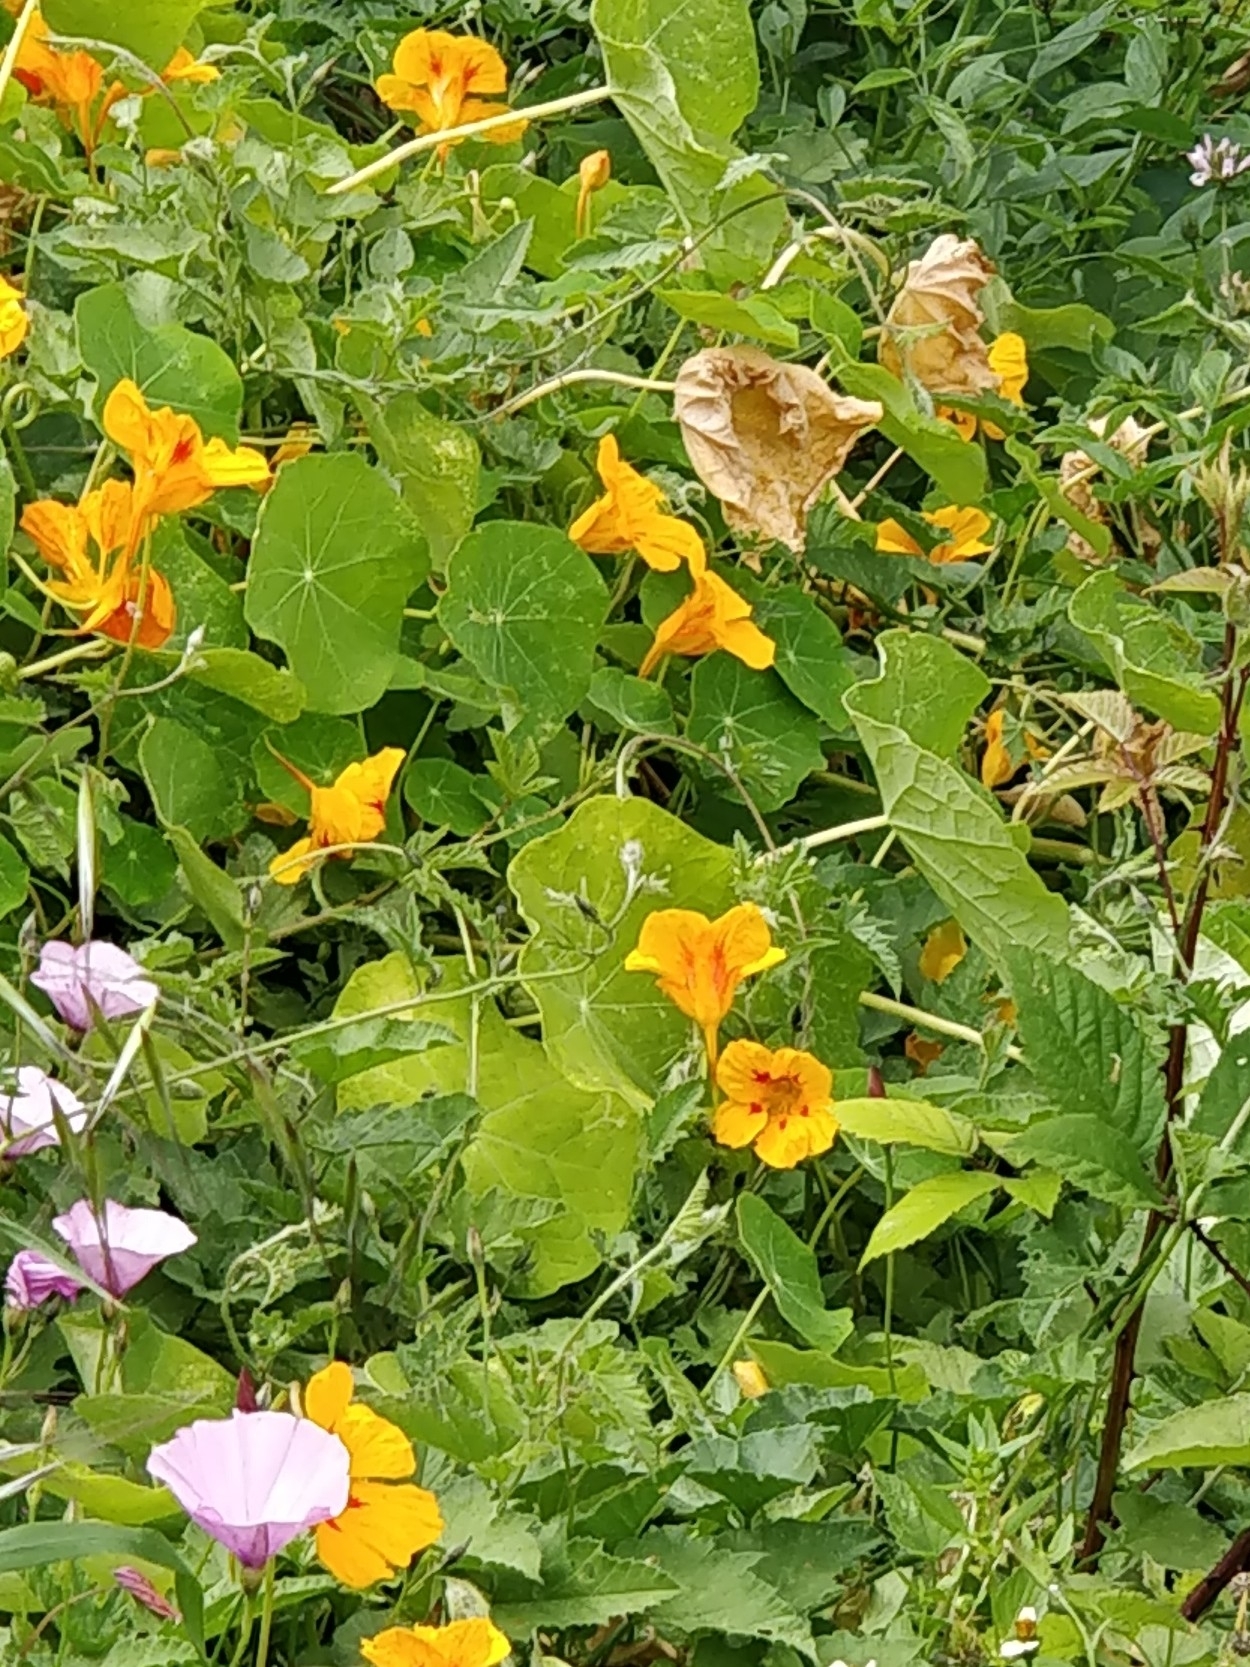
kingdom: Plantae
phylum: Tracheophyta
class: Magnoliopsida
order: Brassicales
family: Tropaeolaceae
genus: Tropaeolum
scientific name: Tropaeolum majus
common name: Nasturtium
